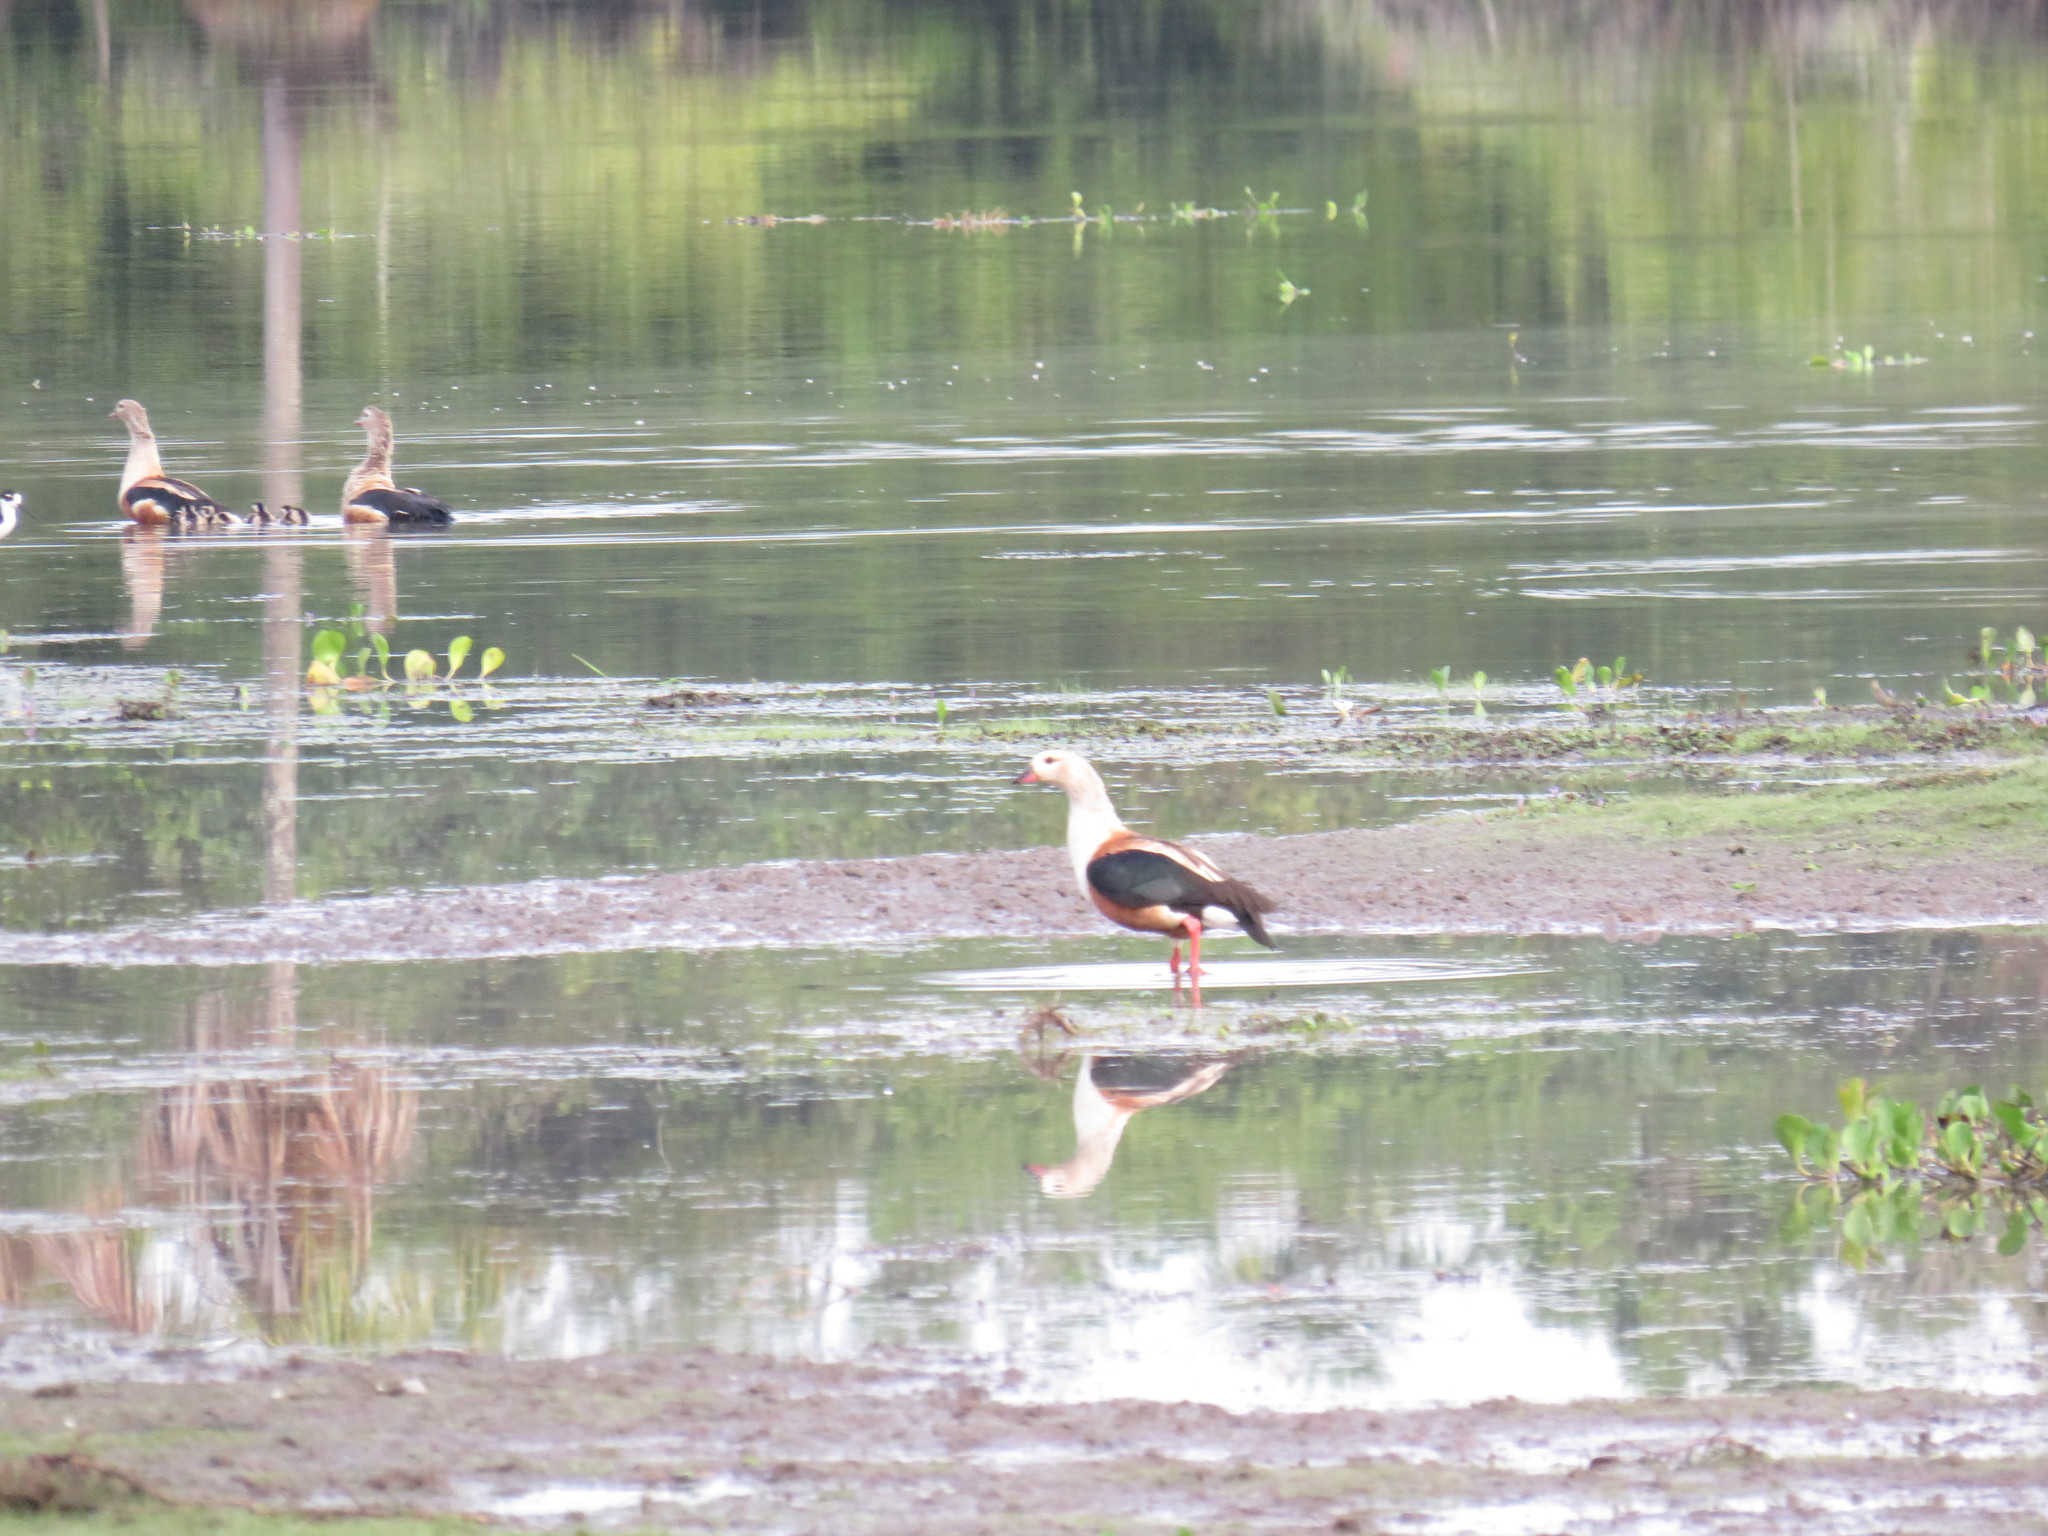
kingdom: Animalia
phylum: Chordata
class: Aves
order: Anseriformes
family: Anatidae
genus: Oressochen
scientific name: Oressochen jubatus
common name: Orinoco goose
